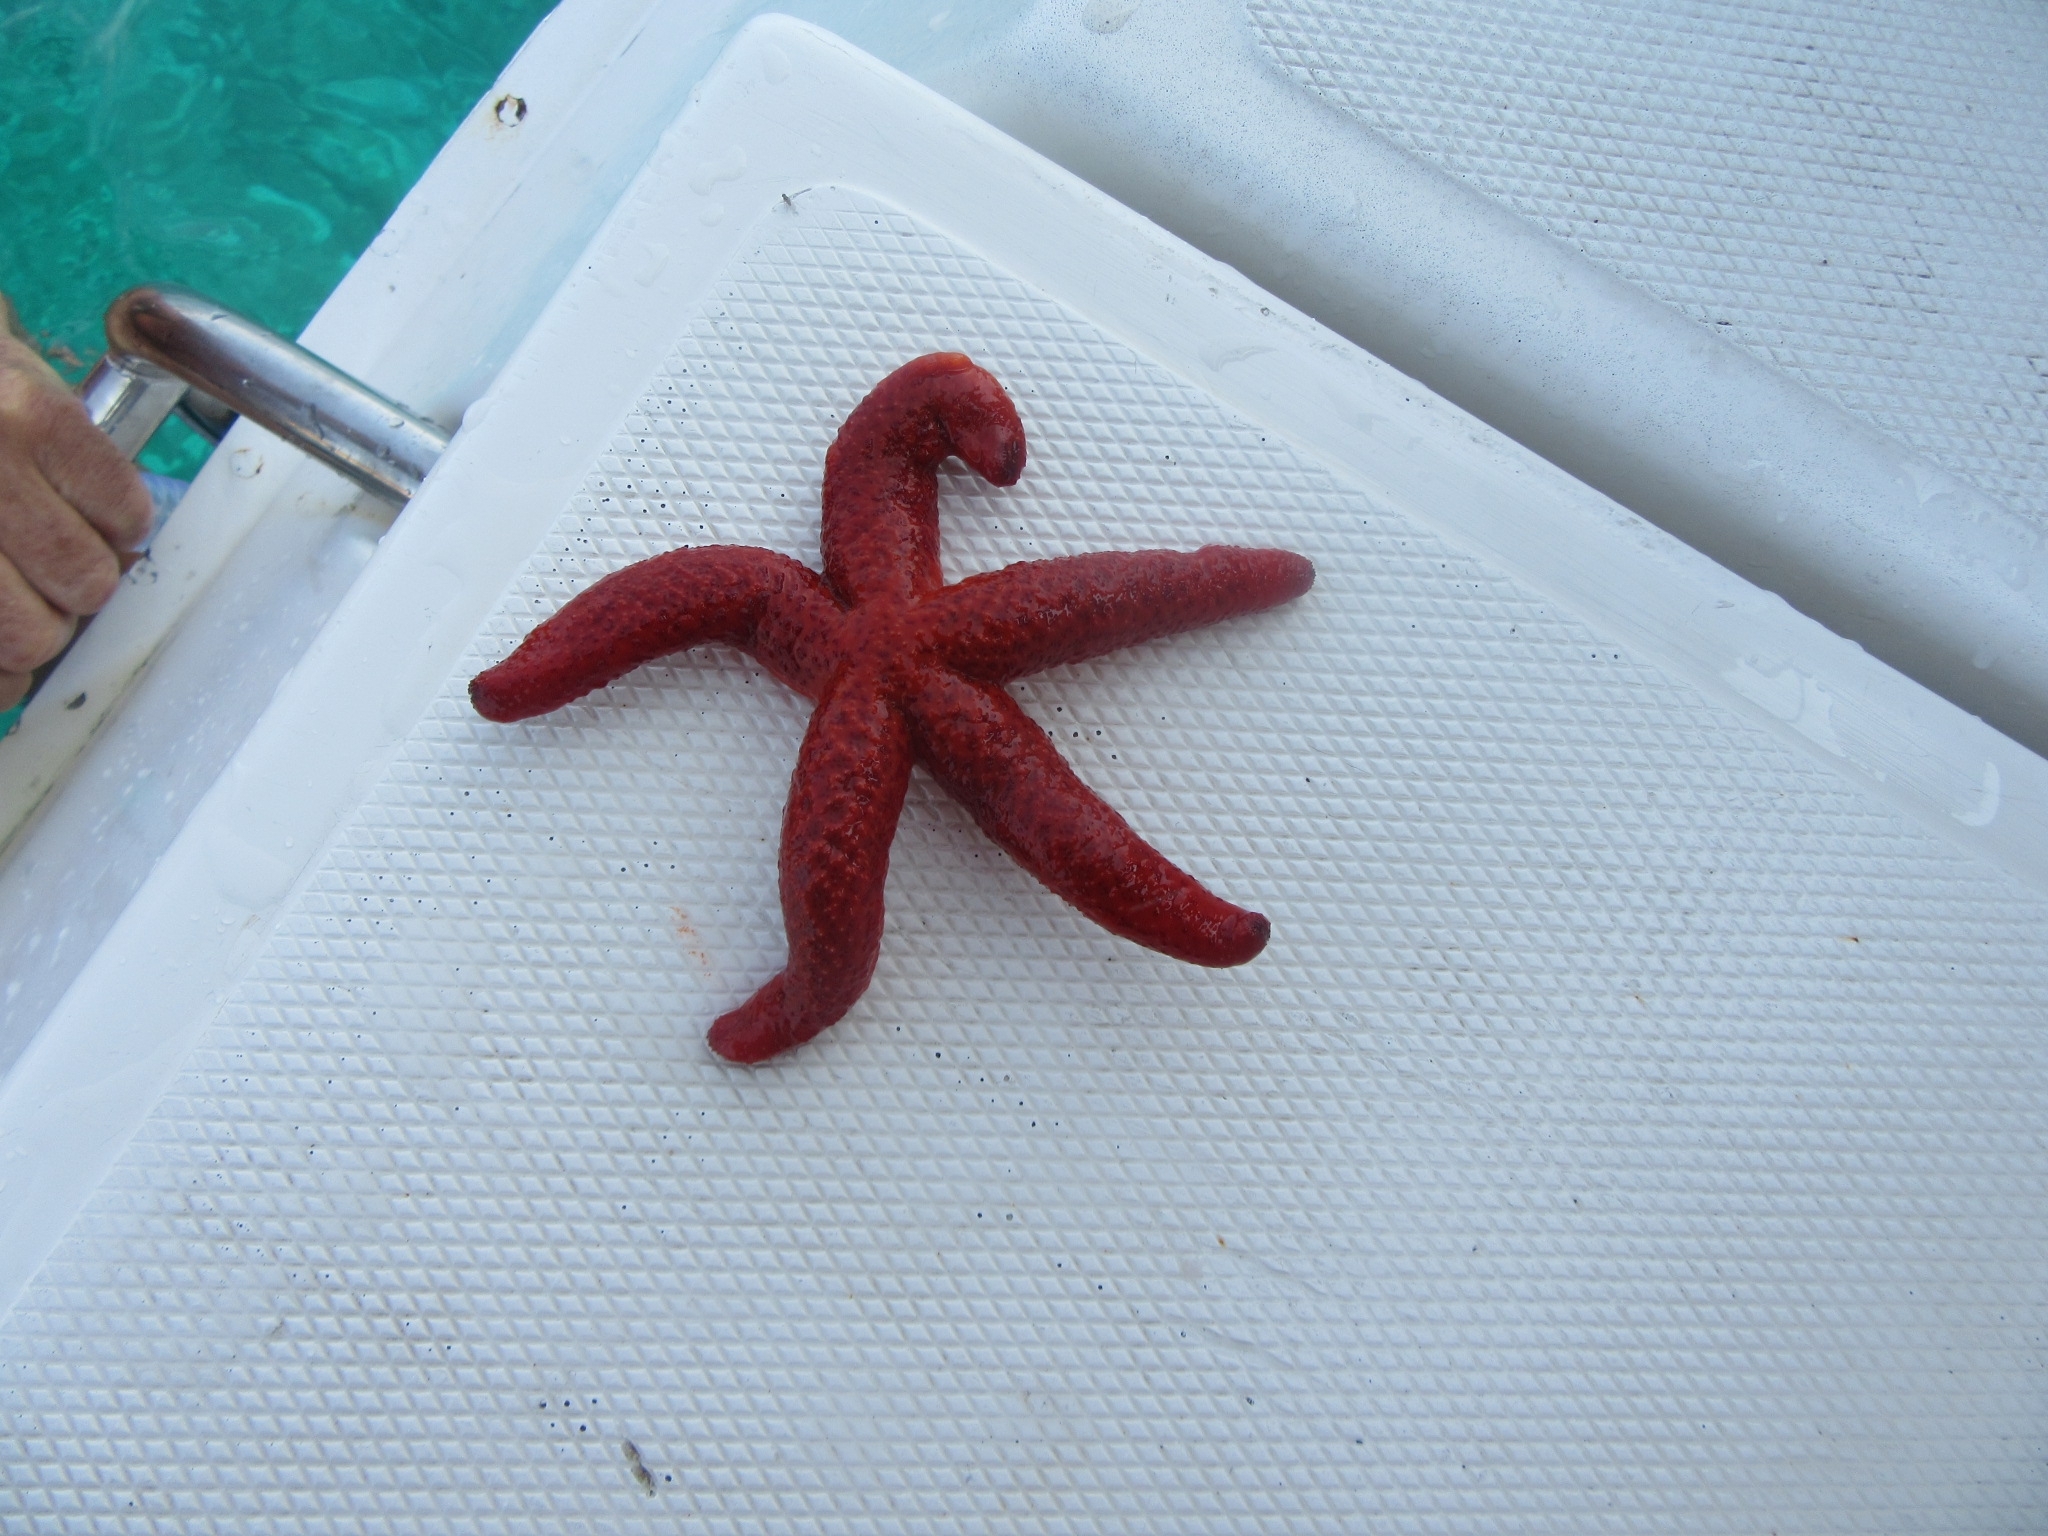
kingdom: Animalia
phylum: Echinodermata
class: Asteroidea
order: Spinulosida
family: Echinasteridae
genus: Echinaster
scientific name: Echinaster sepositus
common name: Red starfish
